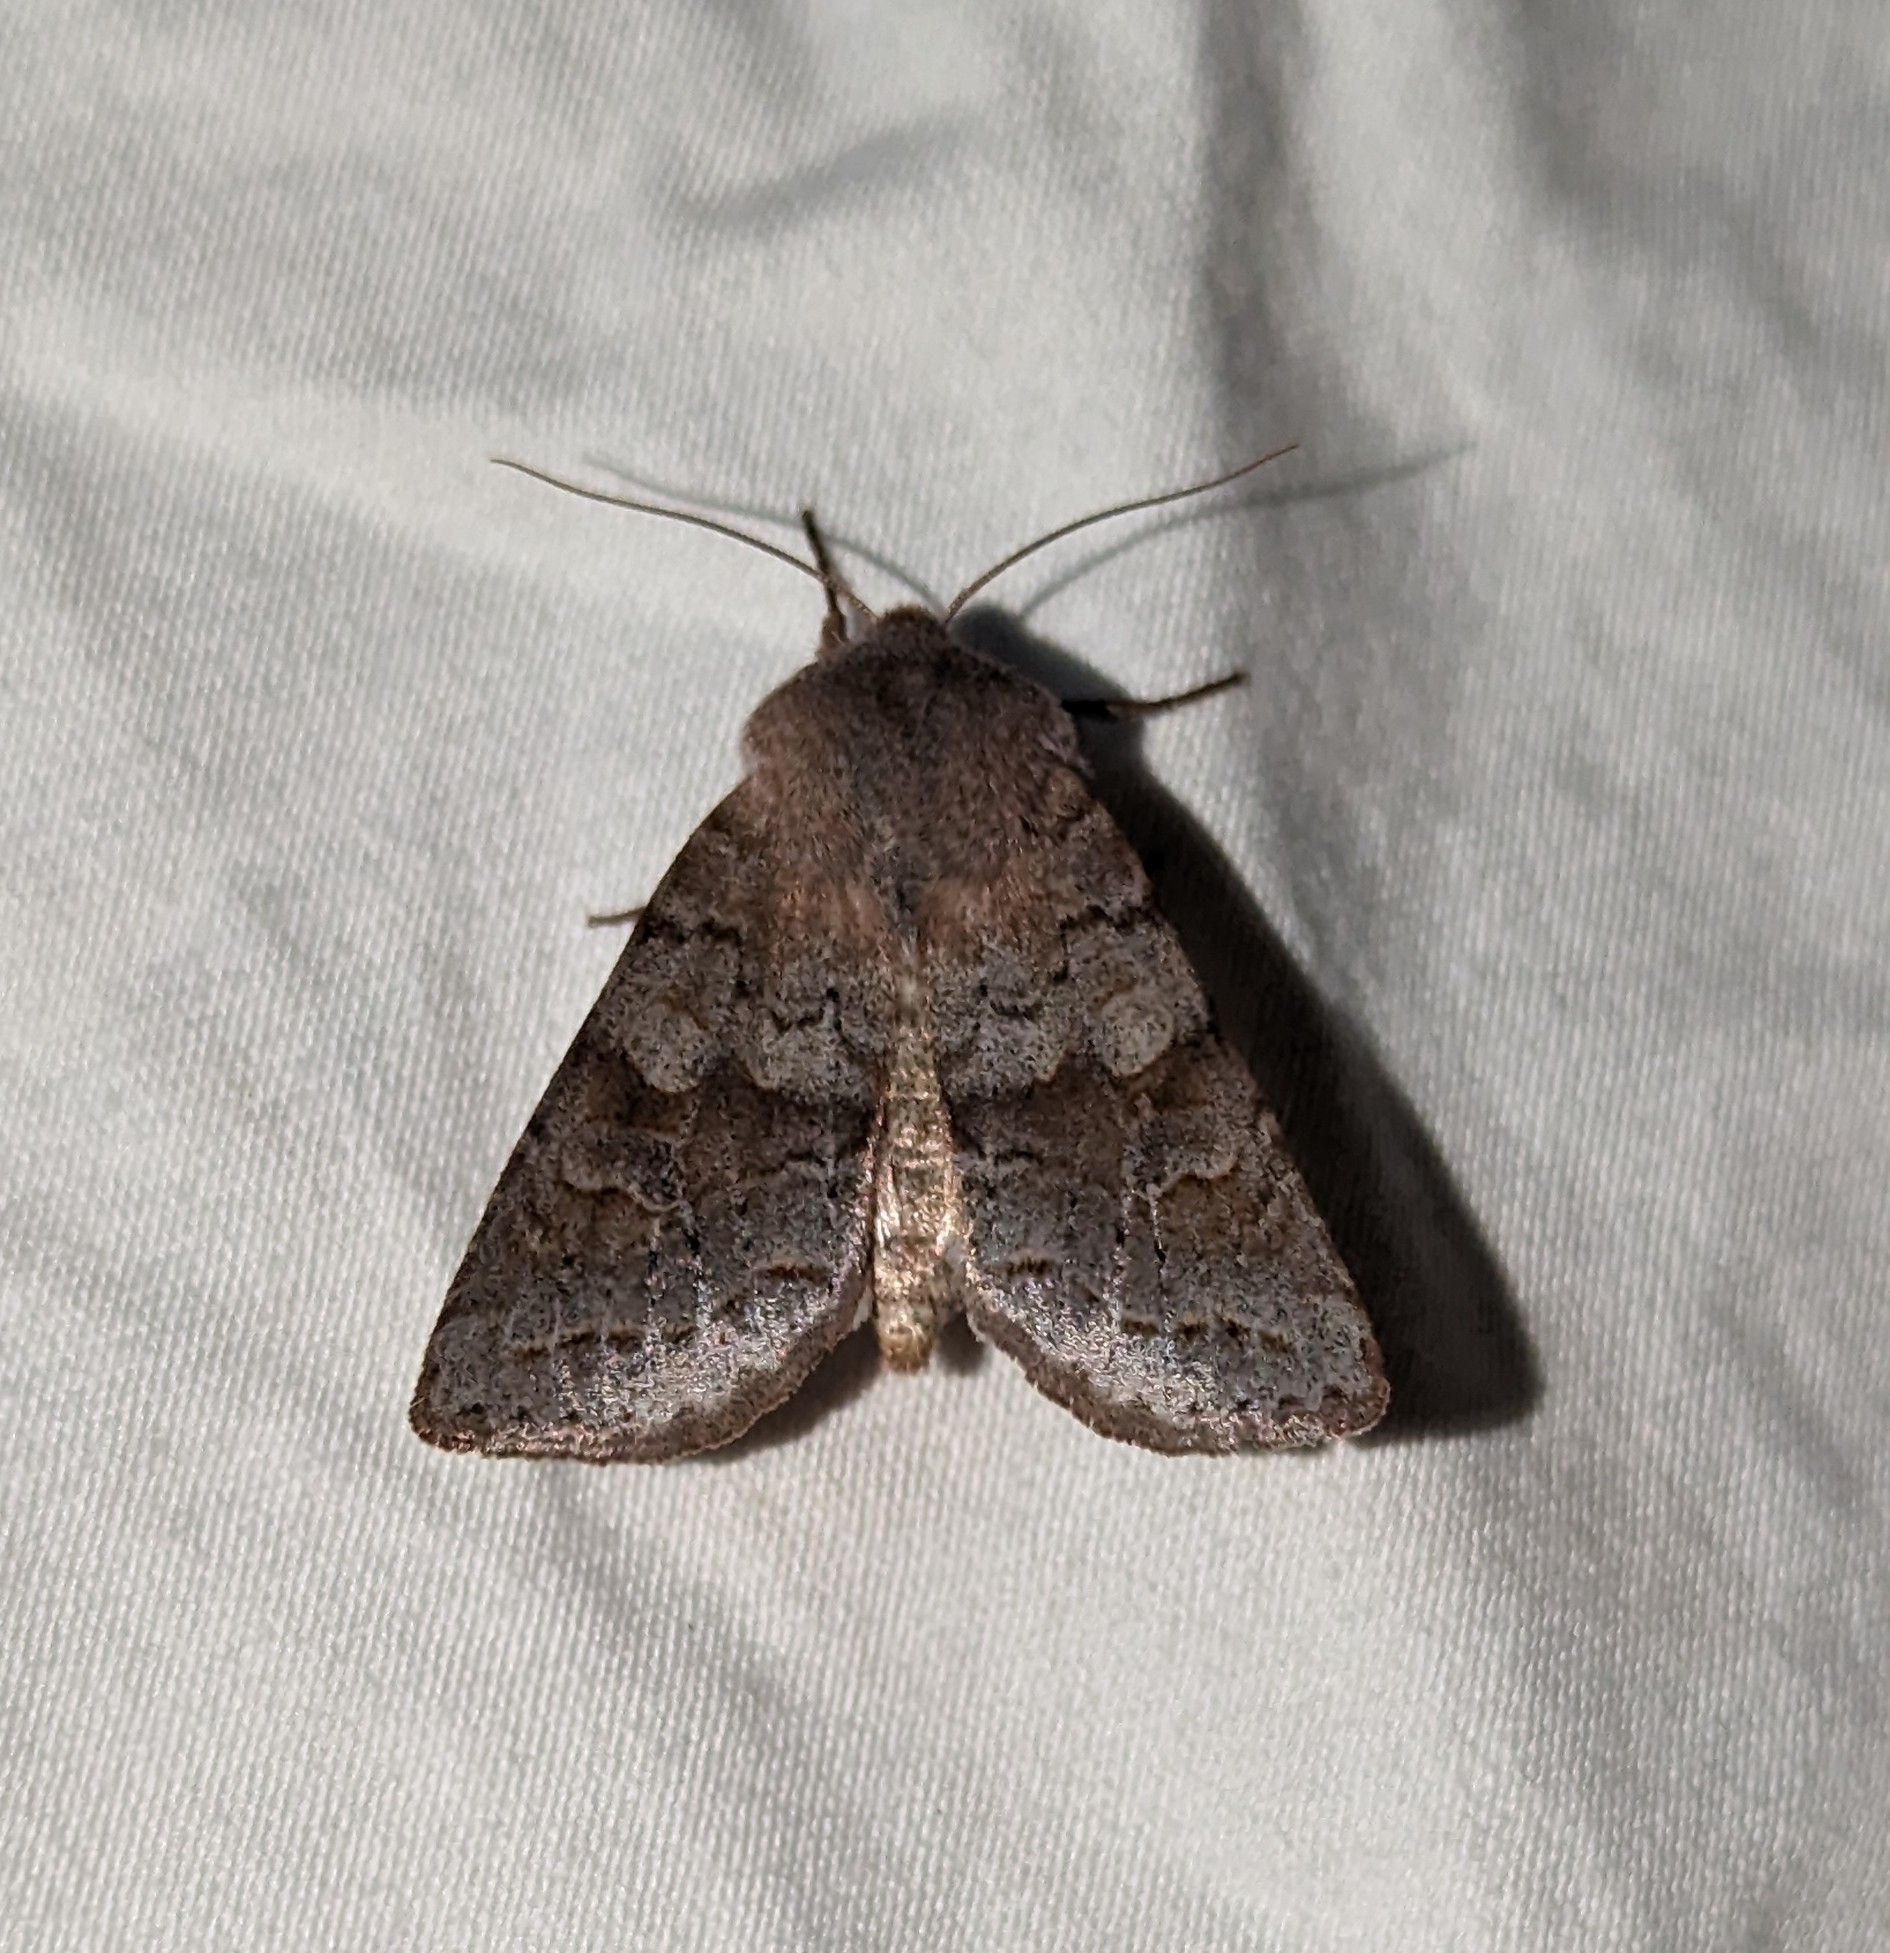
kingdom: Animalia
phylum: Arthropoda
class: Insecta
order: Lepidoptera
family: Noctuidae
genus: Orthosia
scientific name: Orthosia revicta
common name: Rusty whitesided caterpillar
